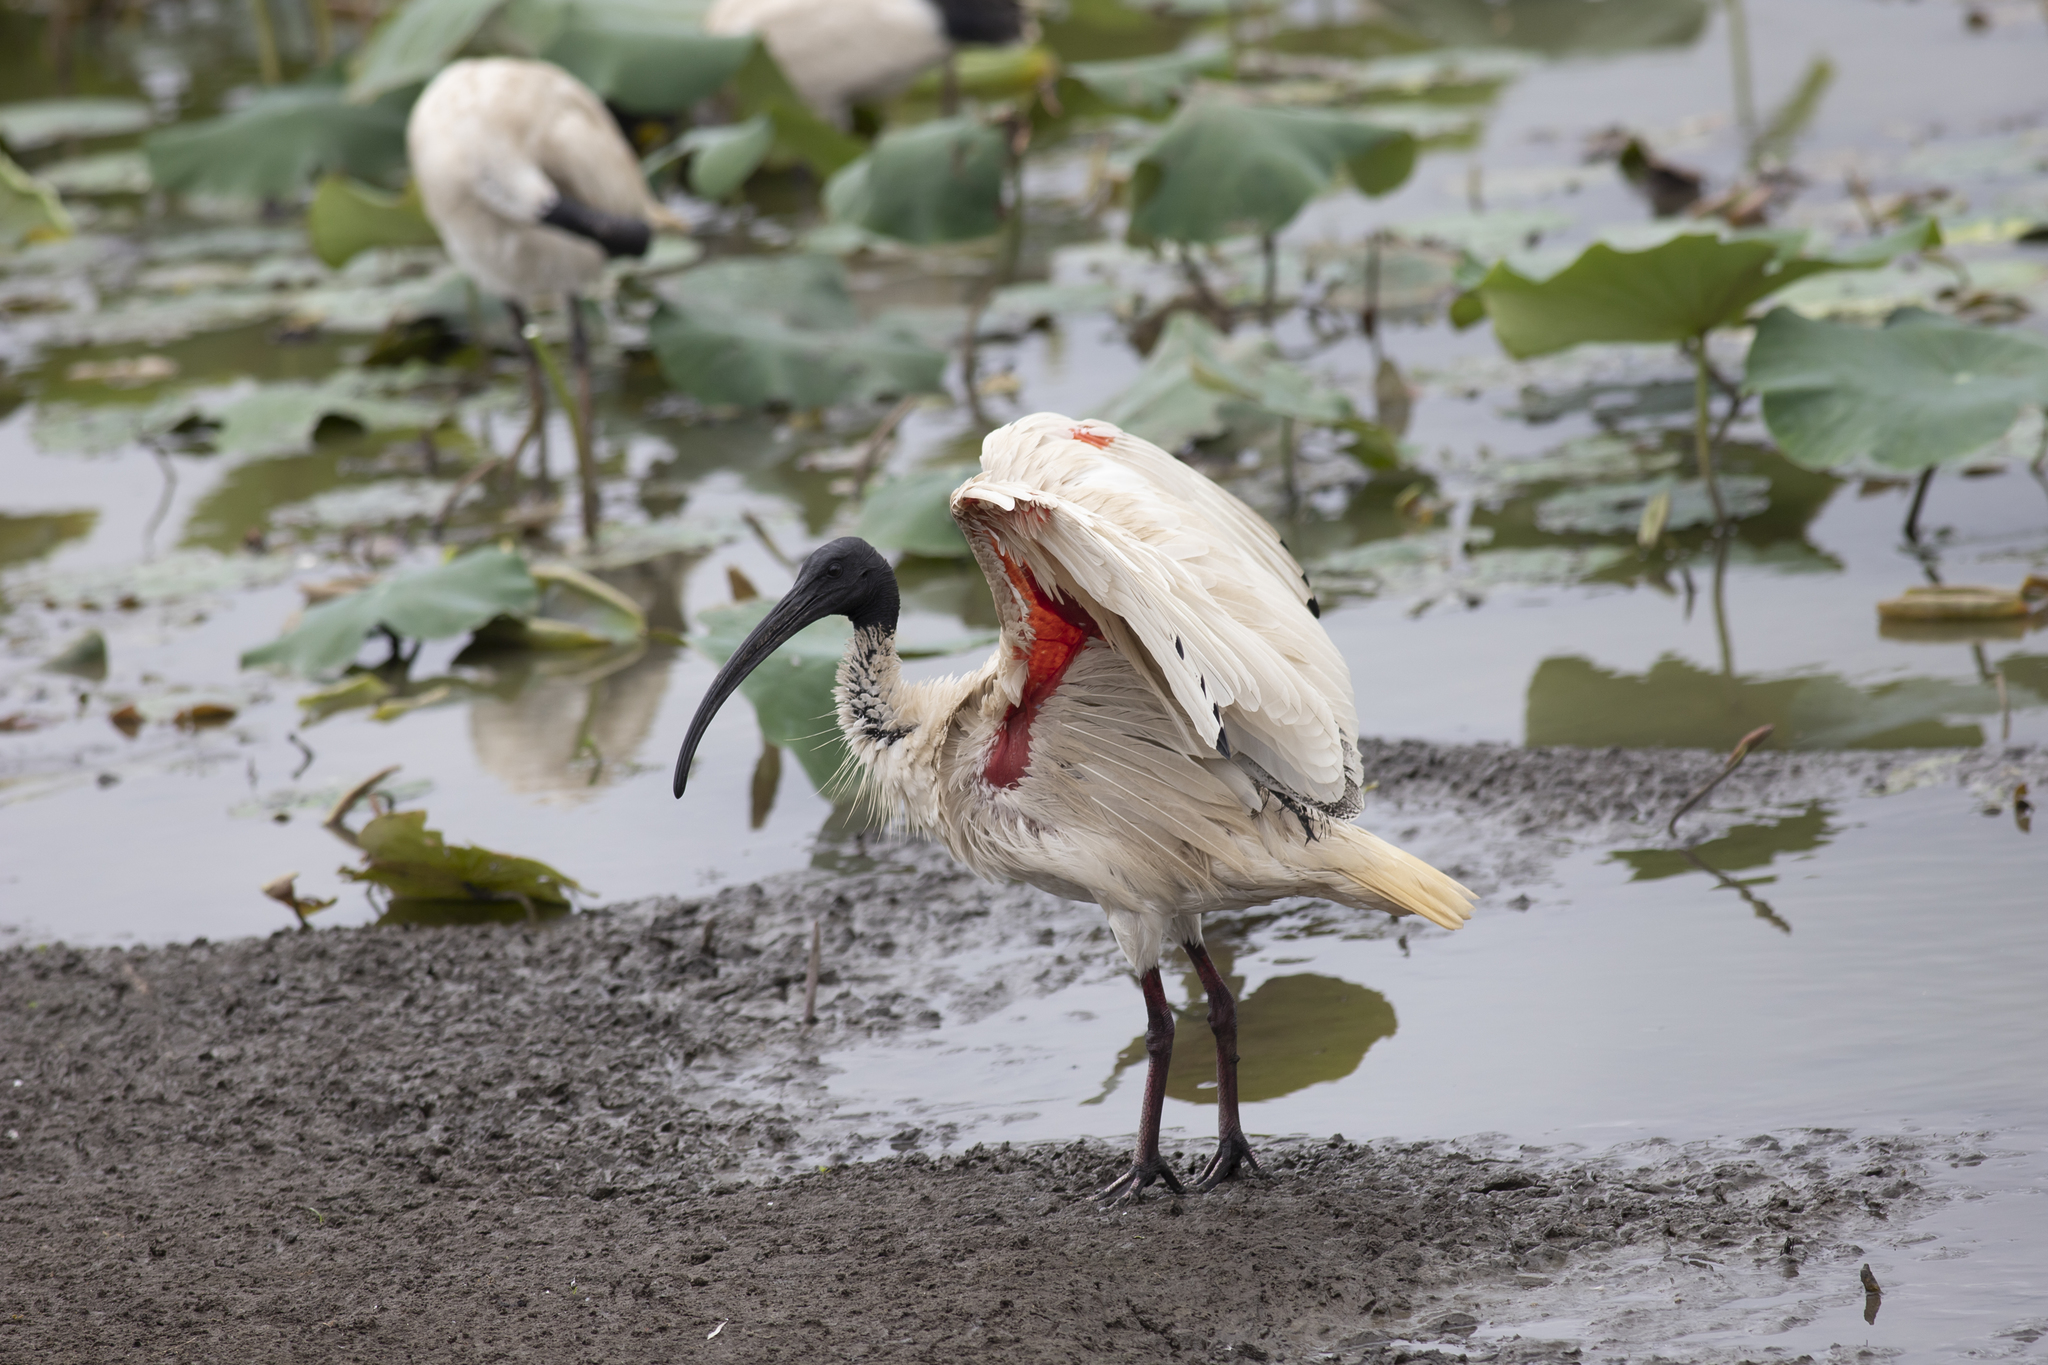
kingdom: Animalia
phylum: Chordata
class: Aves
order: Pelecaniformes
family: Threskiornithidae
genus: Threskiornis
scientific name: Threskiornis molucca
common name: Australian white ibis
